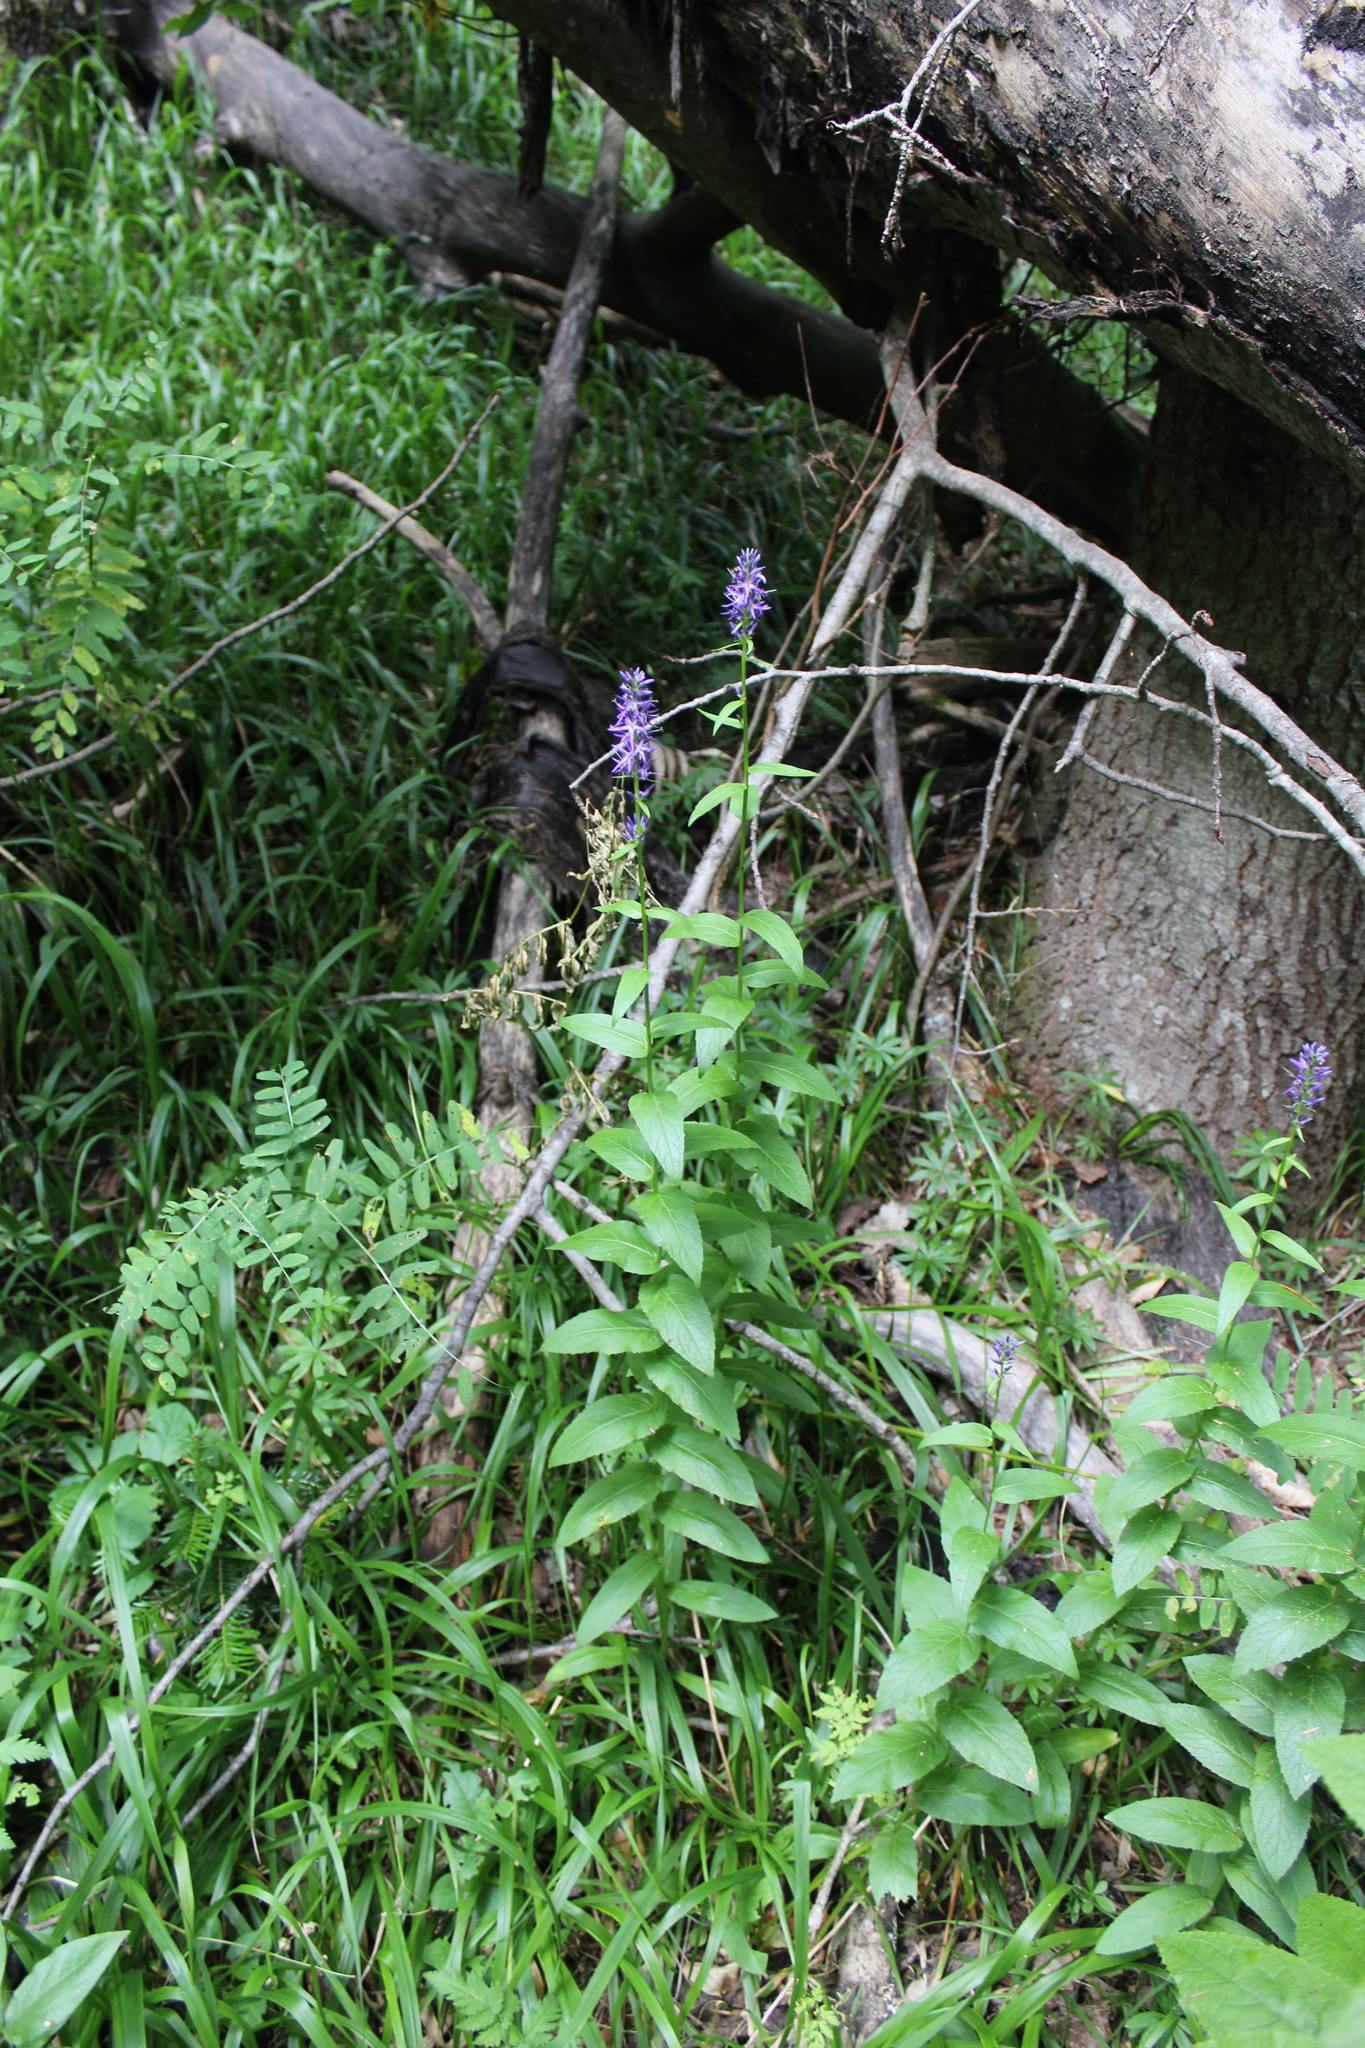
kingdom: Plantae
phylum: Tracheophyta
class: Magnoliopsida
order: Asterales
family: Campanulaceae
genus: Asyneuma
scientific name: Asyneuma campanuloides
